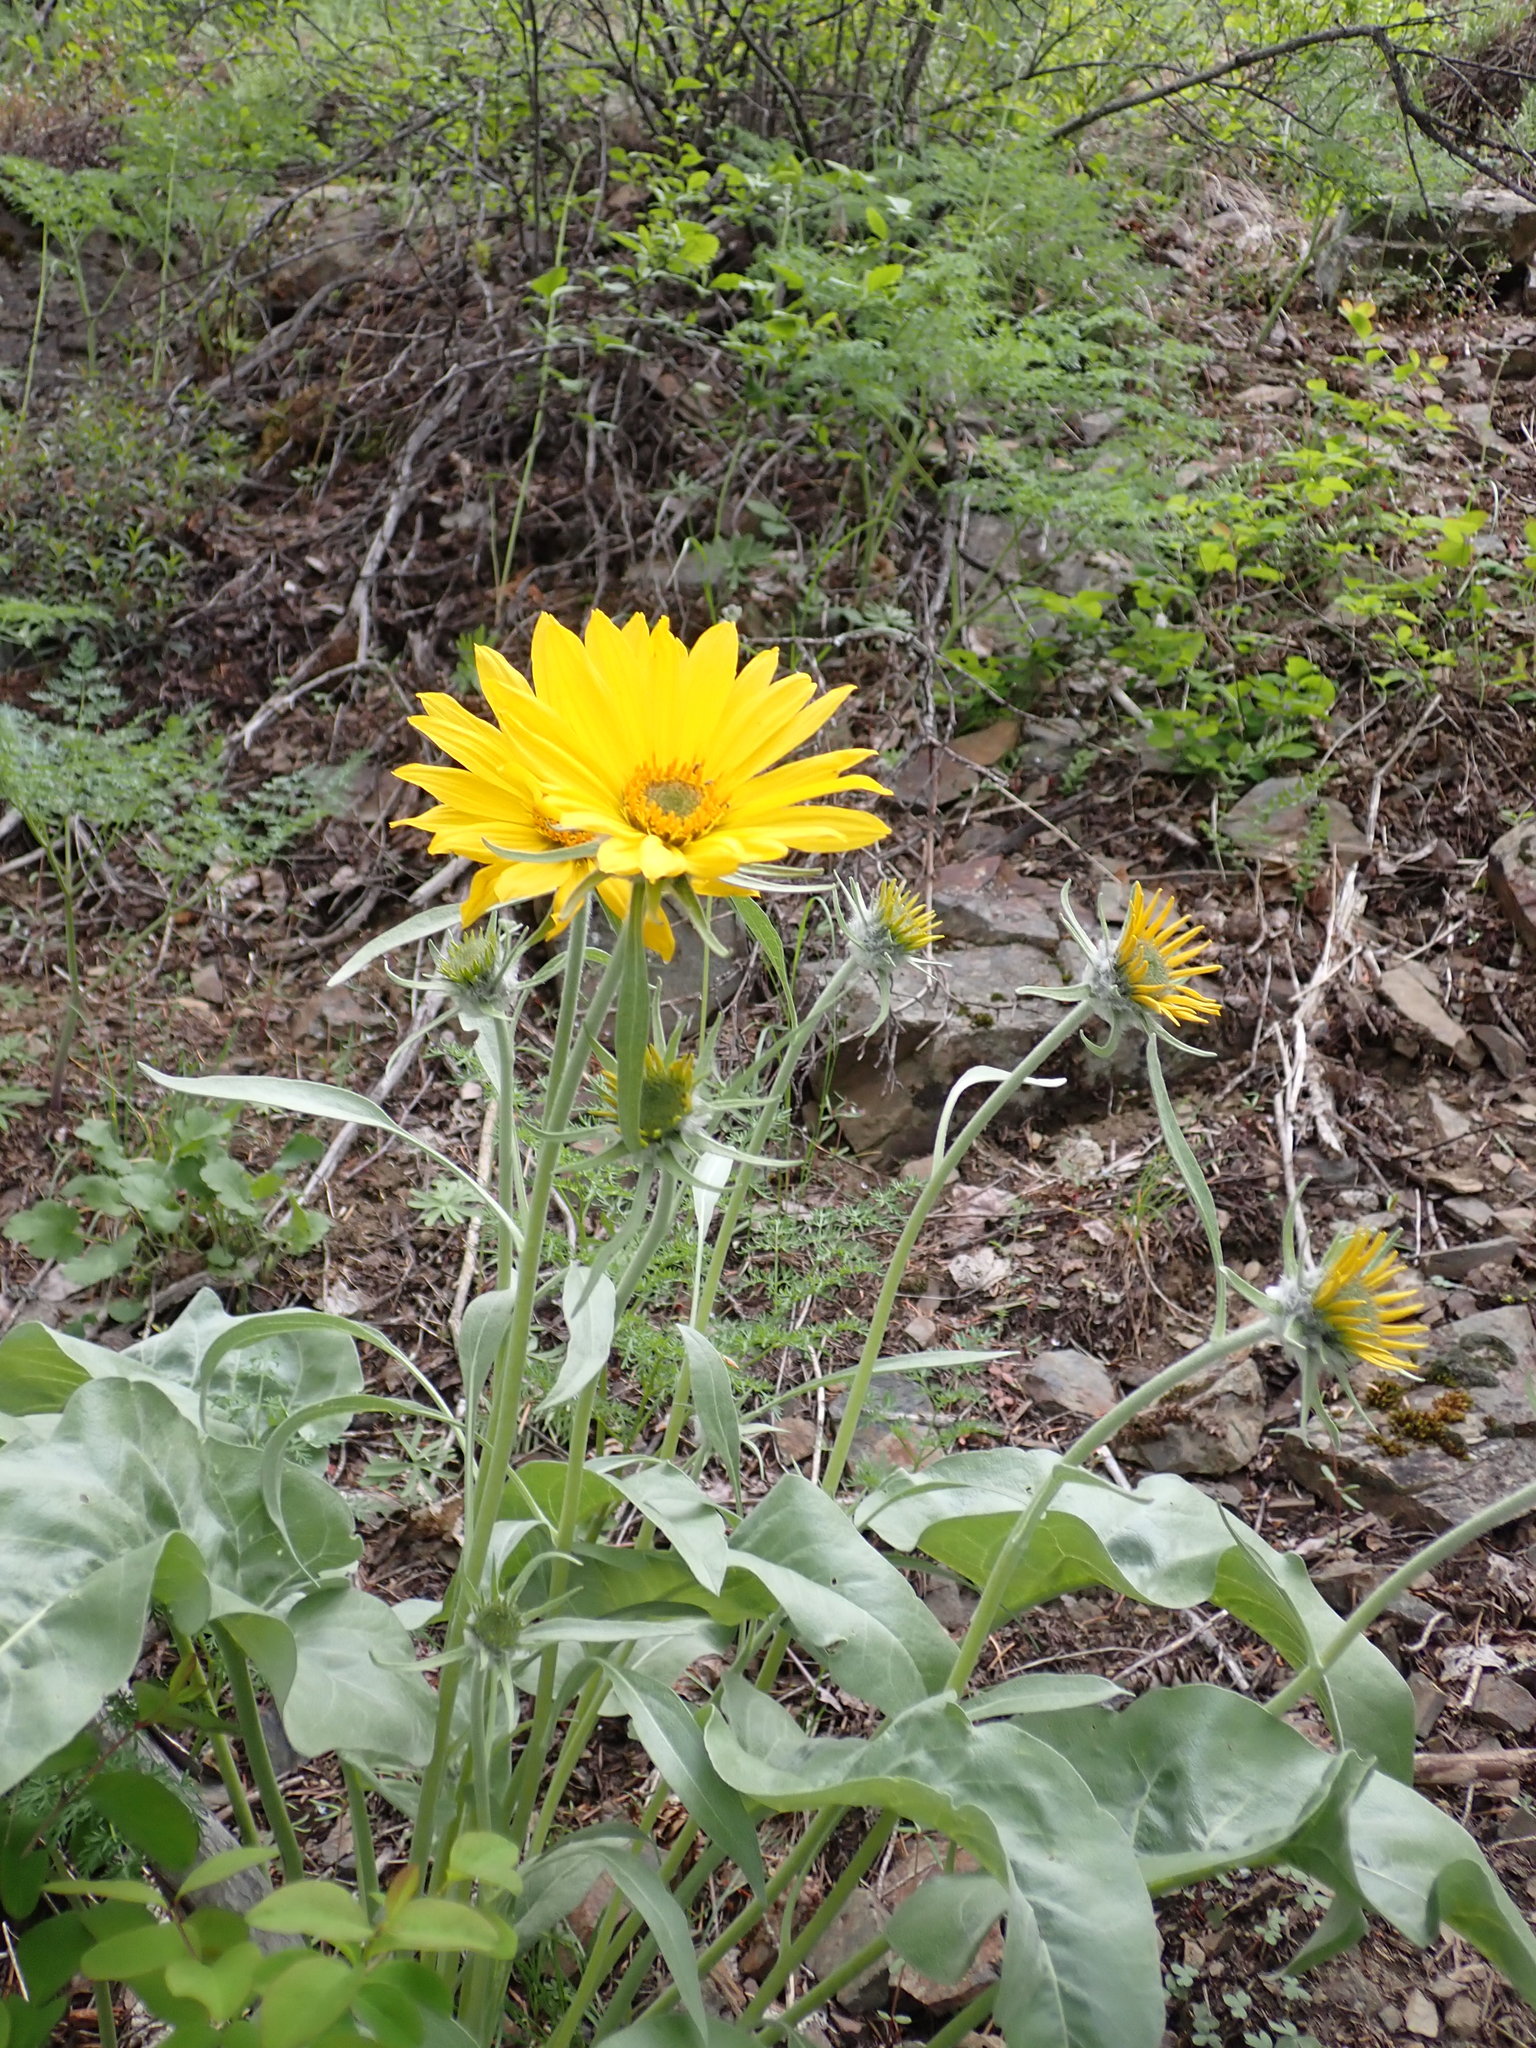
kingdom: Plantae
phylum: Tracheophyta
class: Magnoliopsida
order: Asterales
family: Asteraceae
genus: Wyethia
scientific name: Wyethia sagittata
